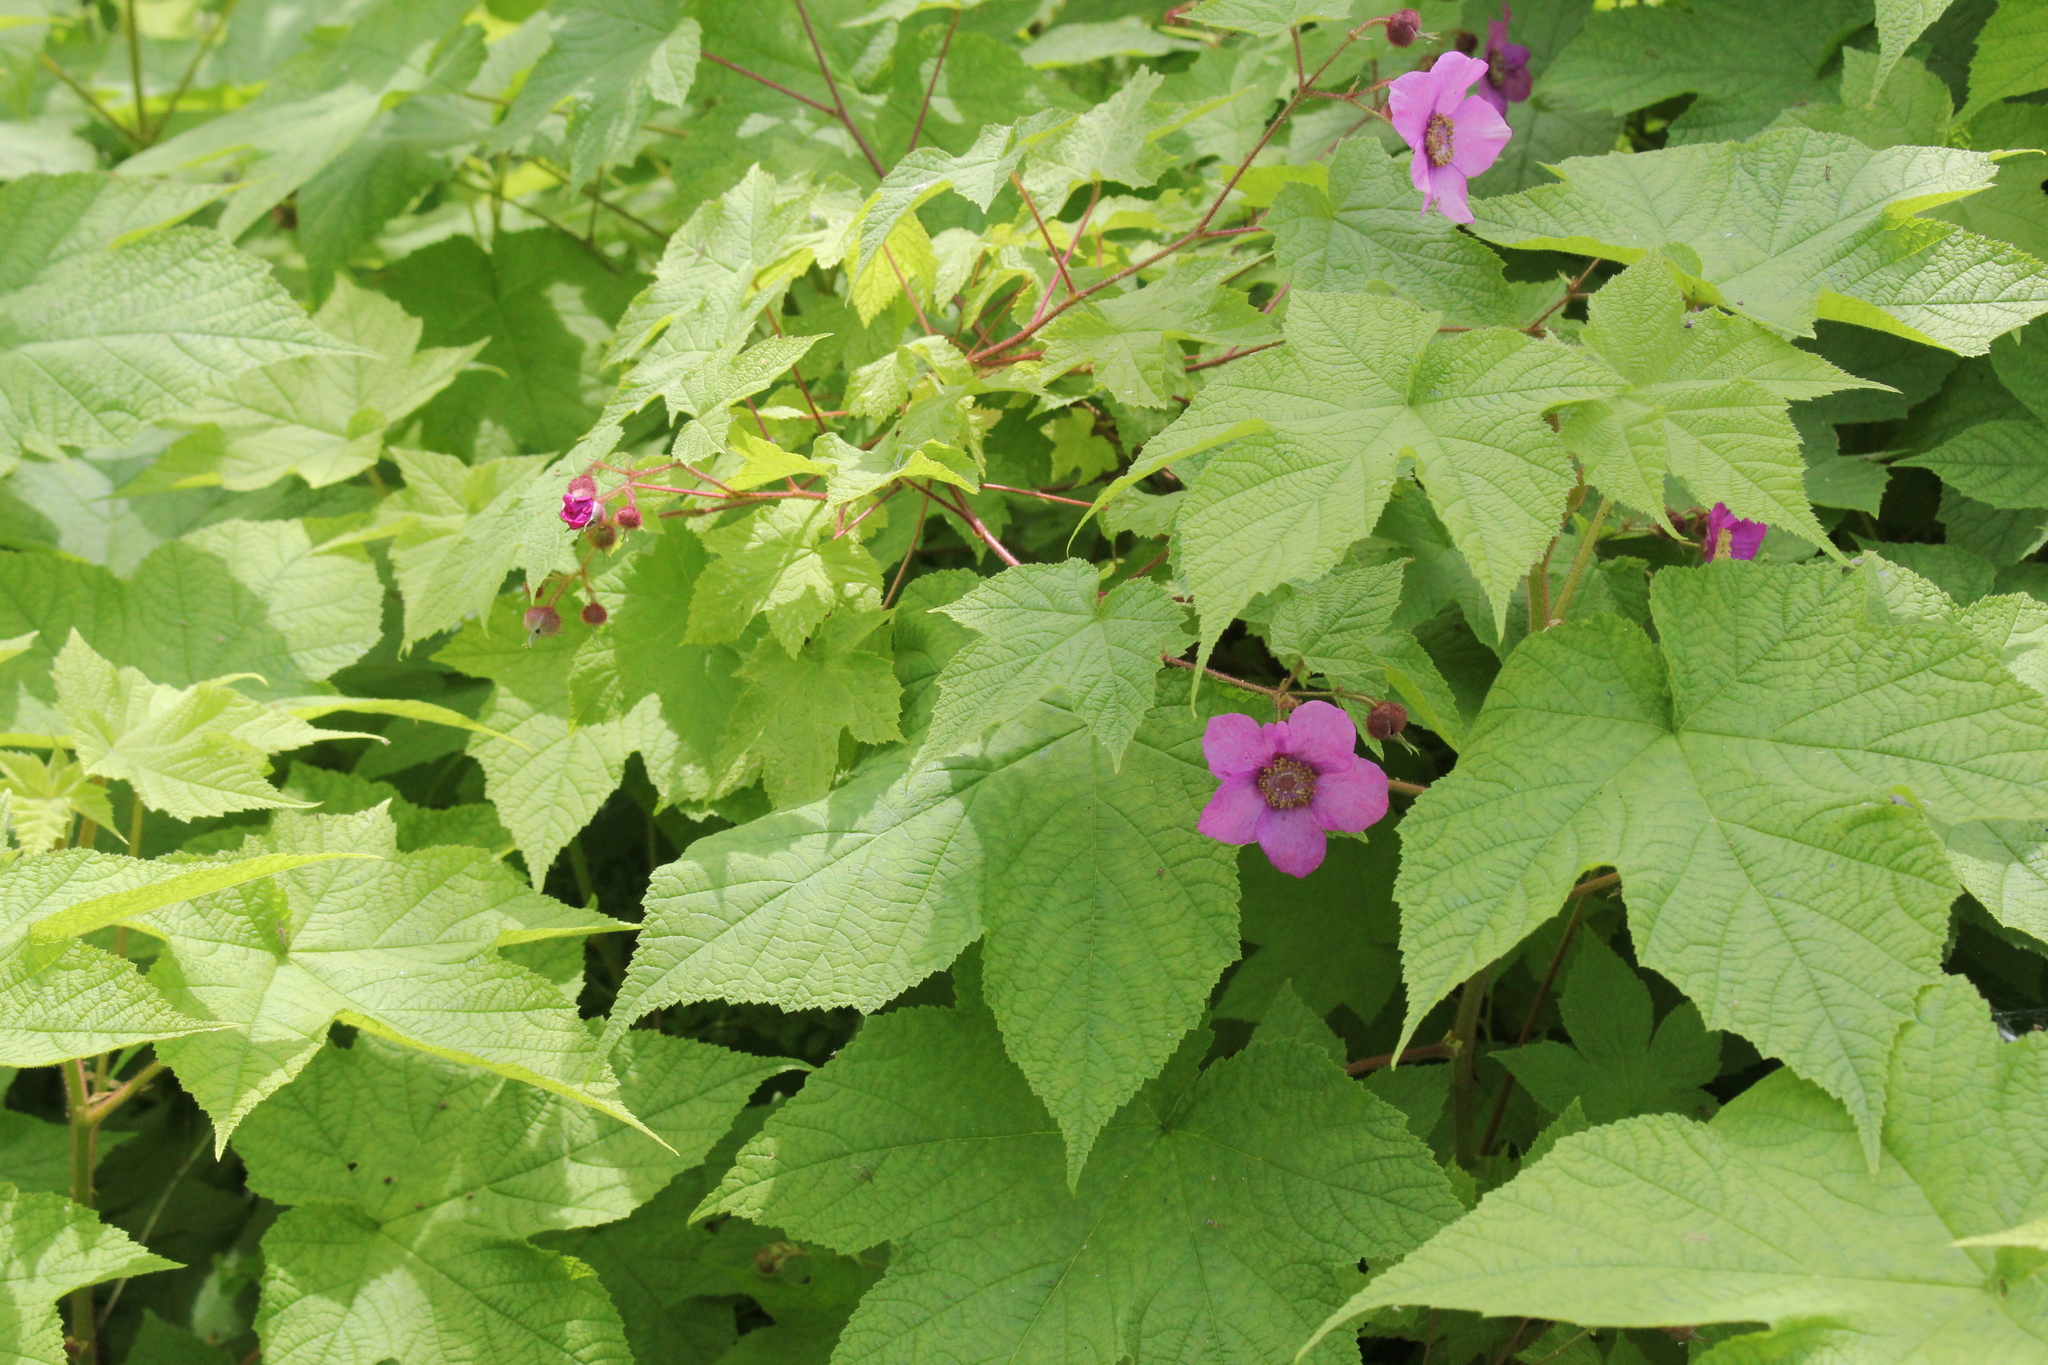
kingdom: Plantae
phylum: Tracheophyta
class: Magnoliopsida
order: Rosales
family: Rosaceae
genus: Rubus
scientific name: Rubus odoratus
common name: Purple-flowered raspberry
